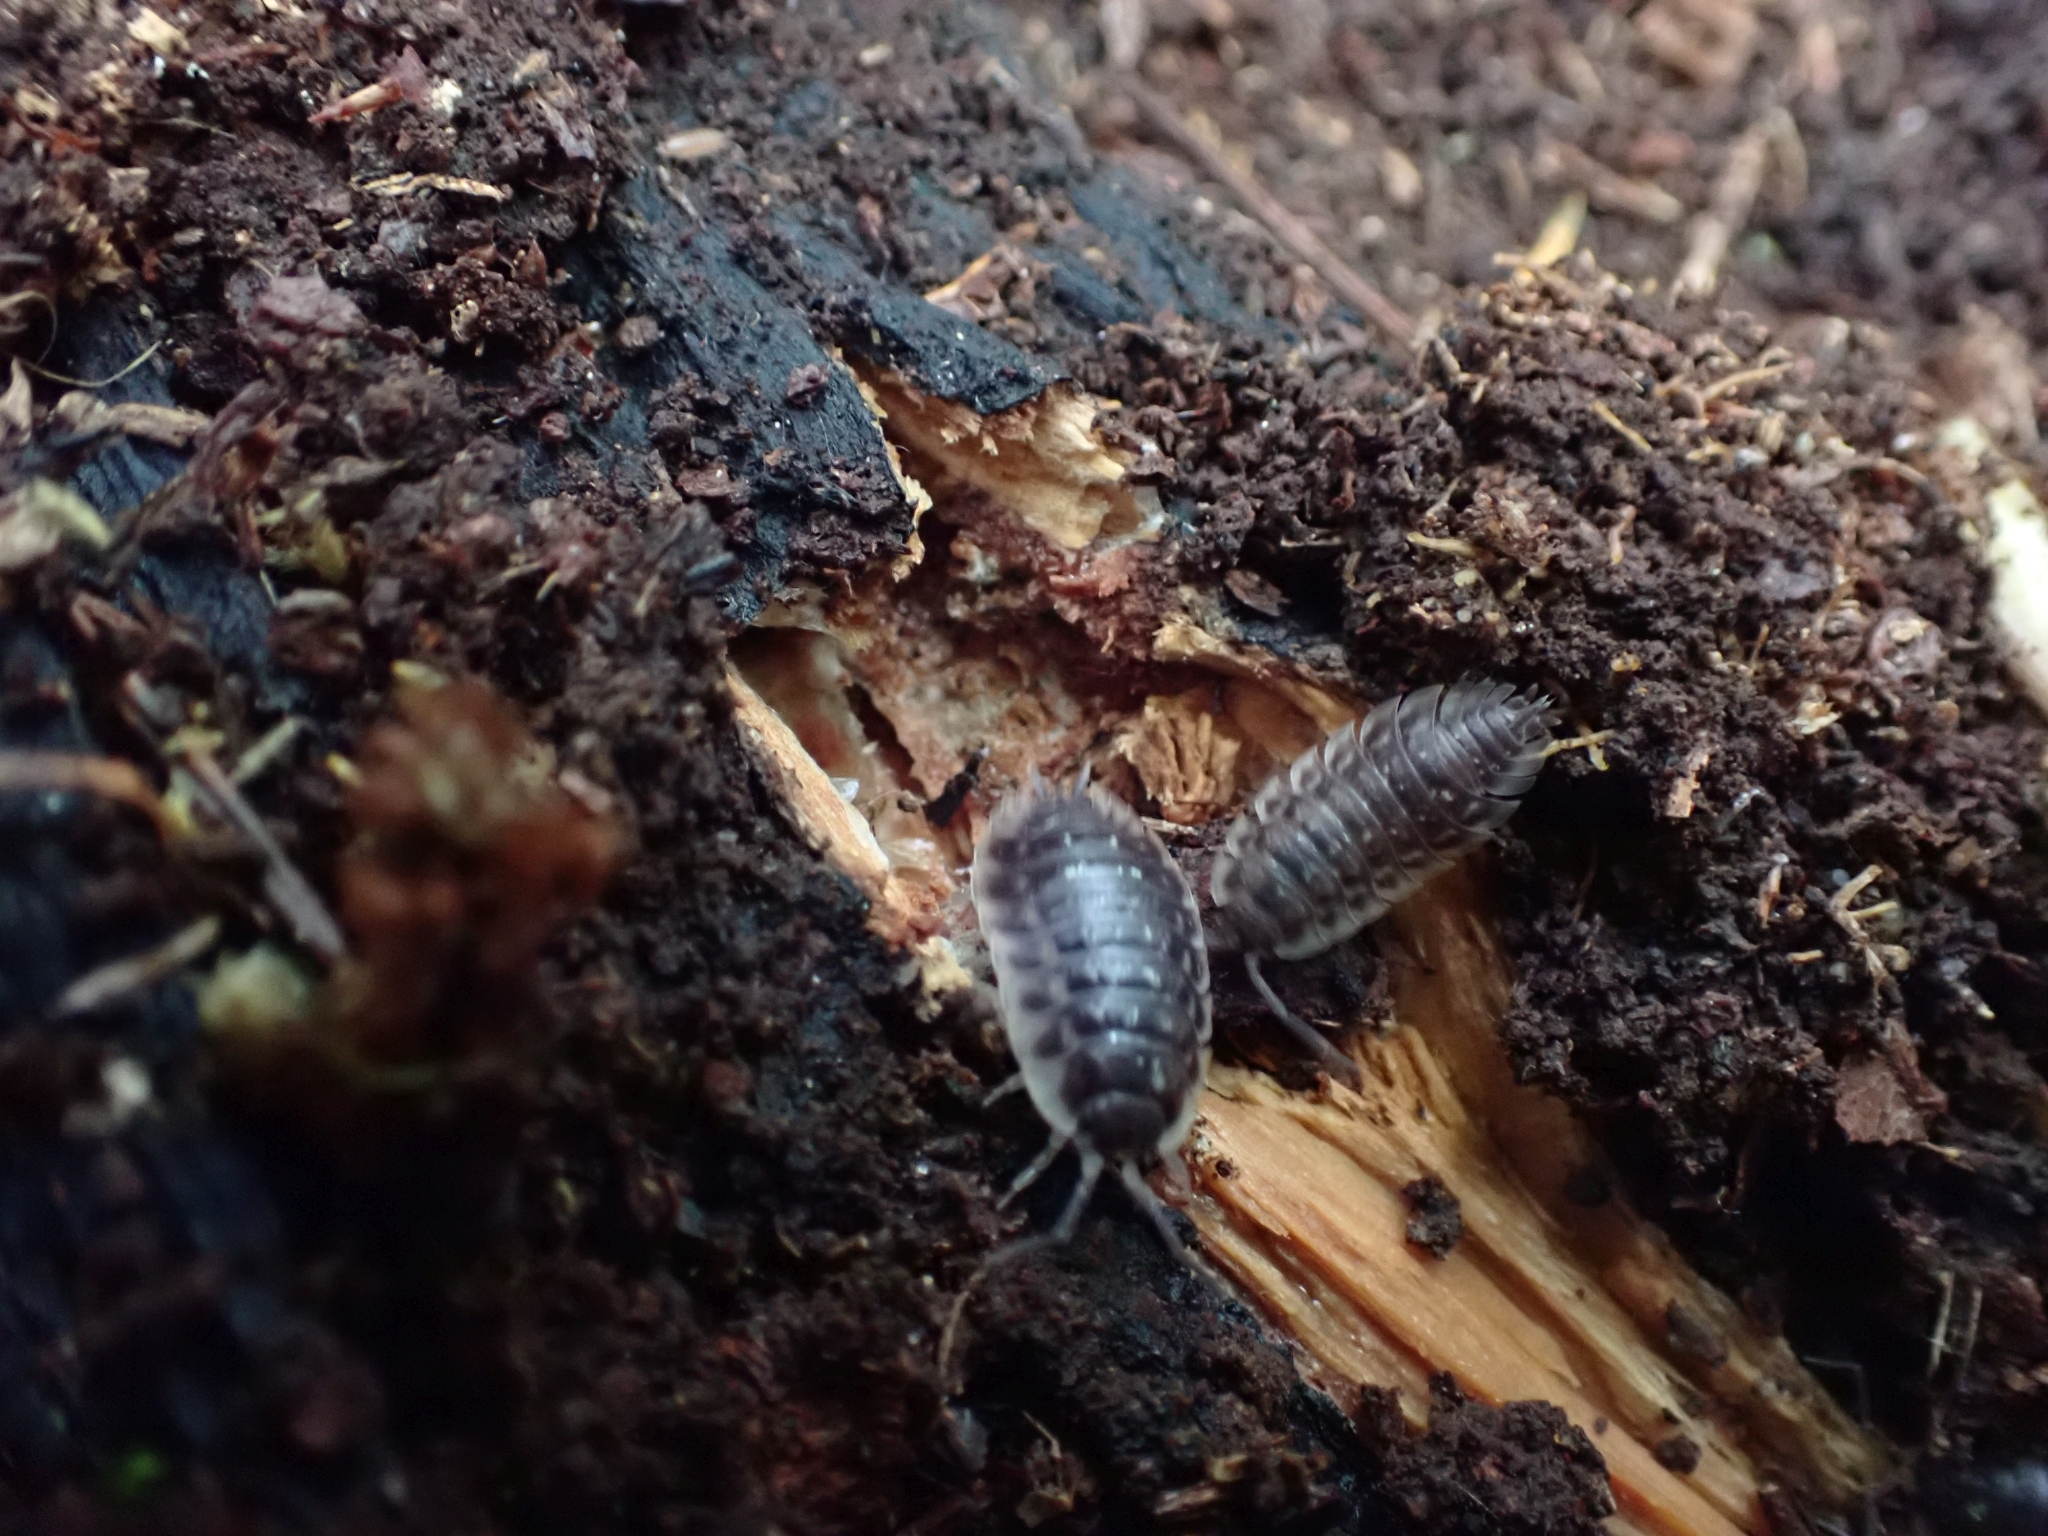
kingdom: Animalia
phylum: Arthropoda
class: Malacostraca
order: Isopoda
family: Oniscidae
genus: Oniscus
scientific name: Oniscus asellus
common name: Common shiny woodlouse
